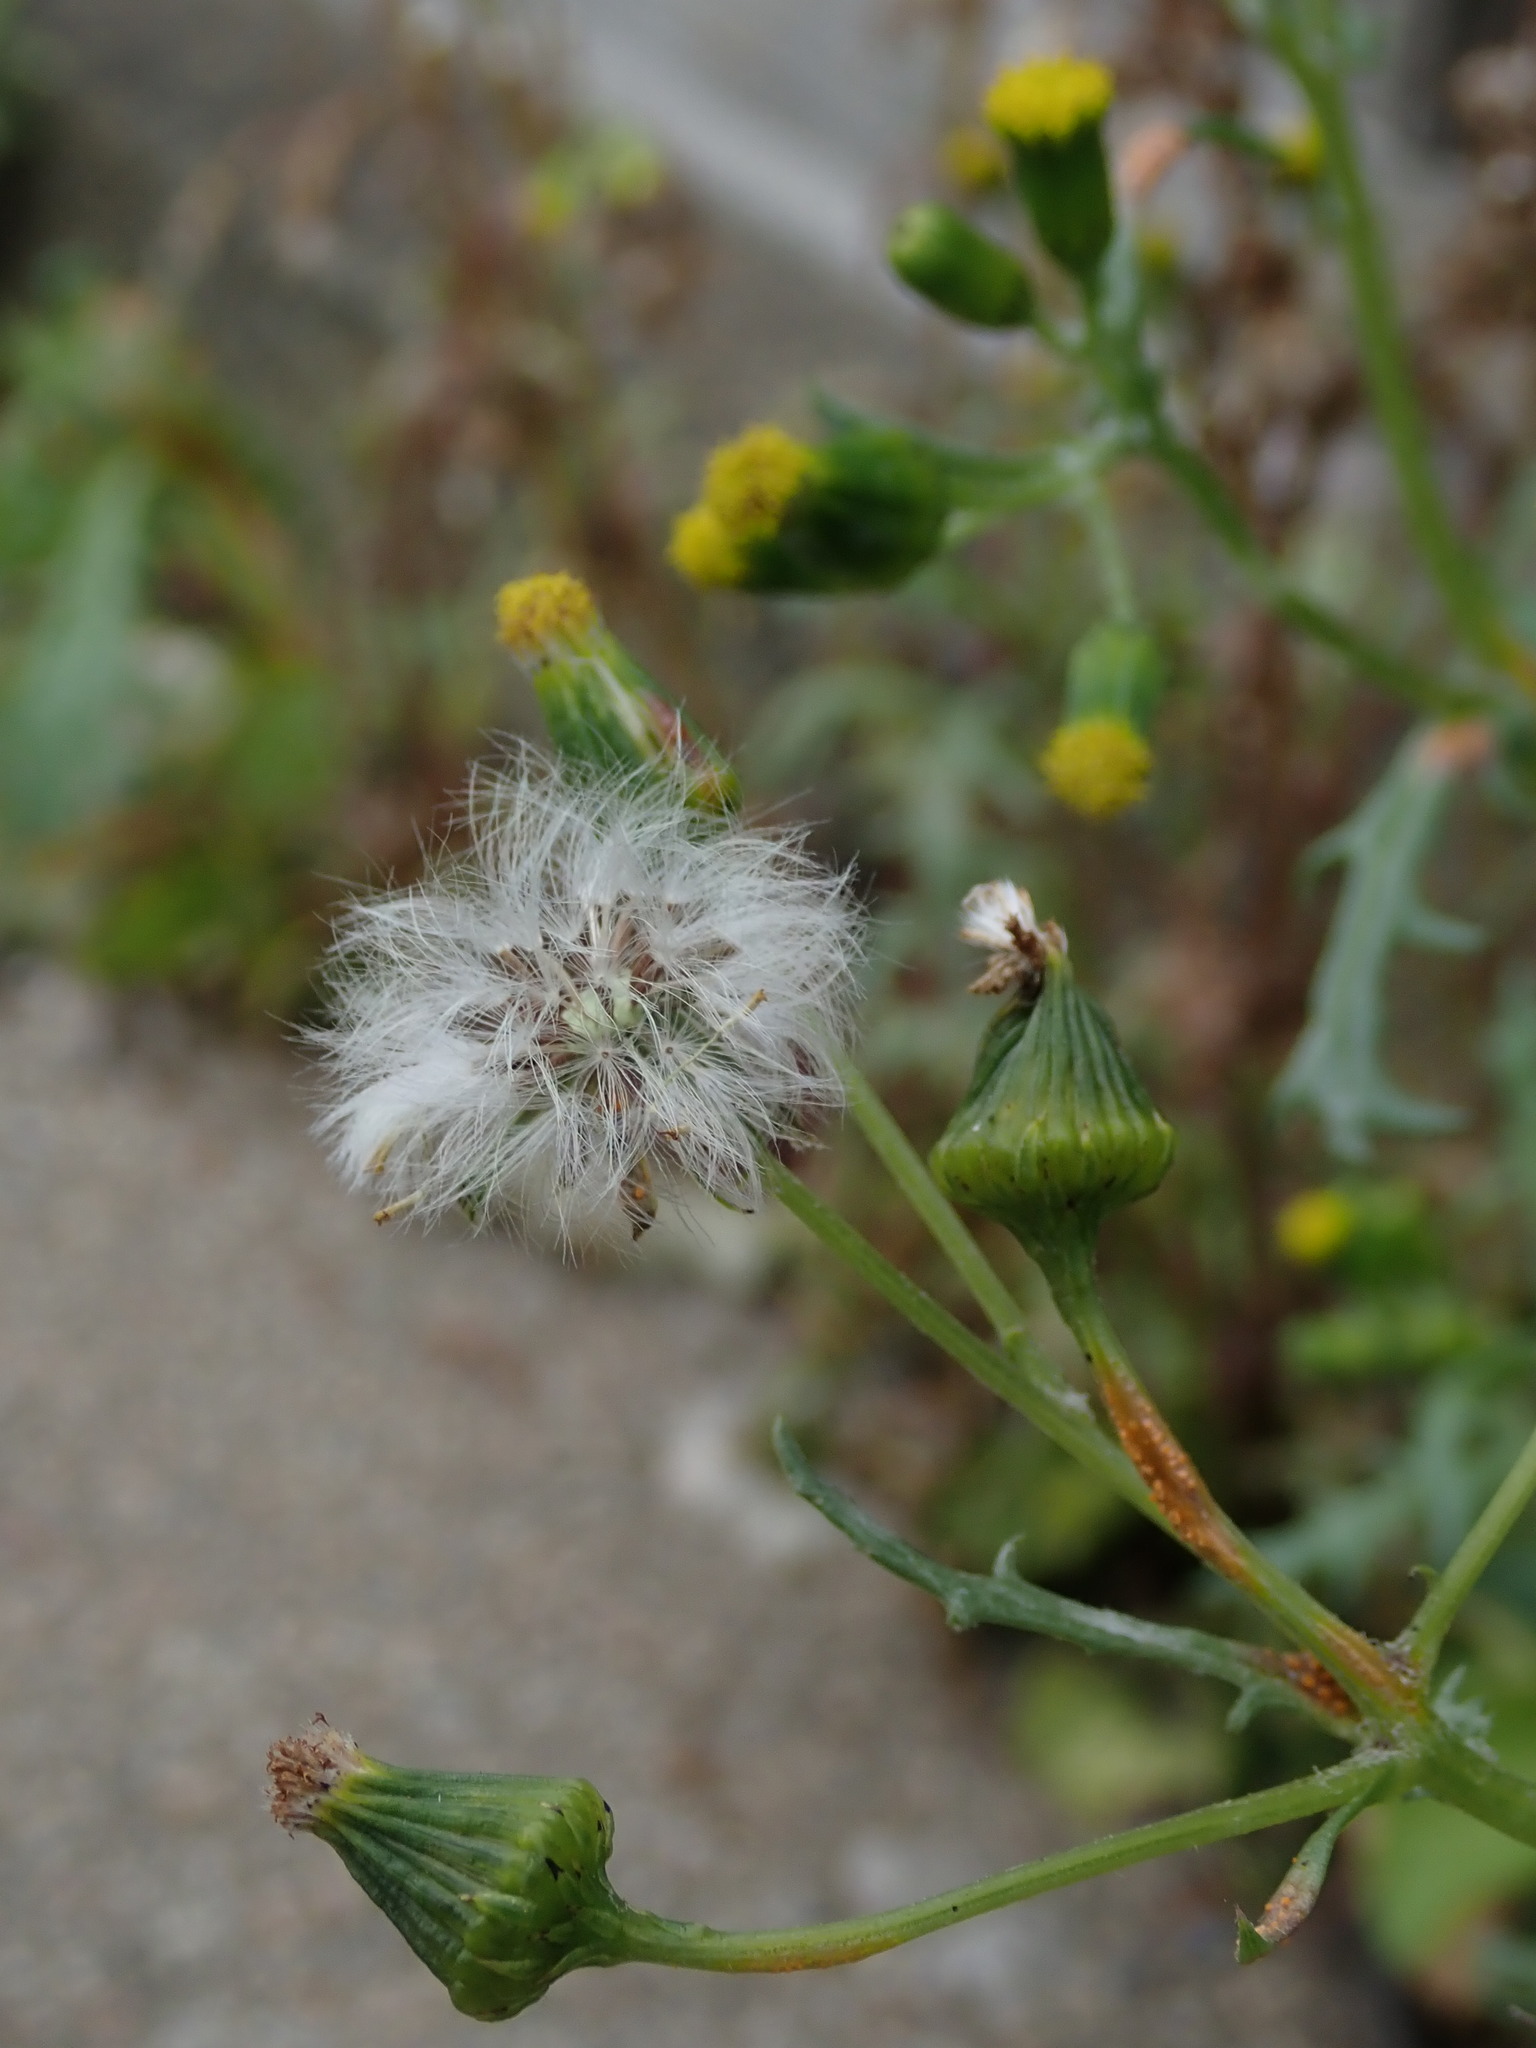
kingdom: Plantae
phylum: Tracheophyta
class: Magnoliopsida
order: Asterales
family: Asteraceae
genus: Senecio
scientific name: Senecio vulgaris
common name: Old-man-in-the-spring
